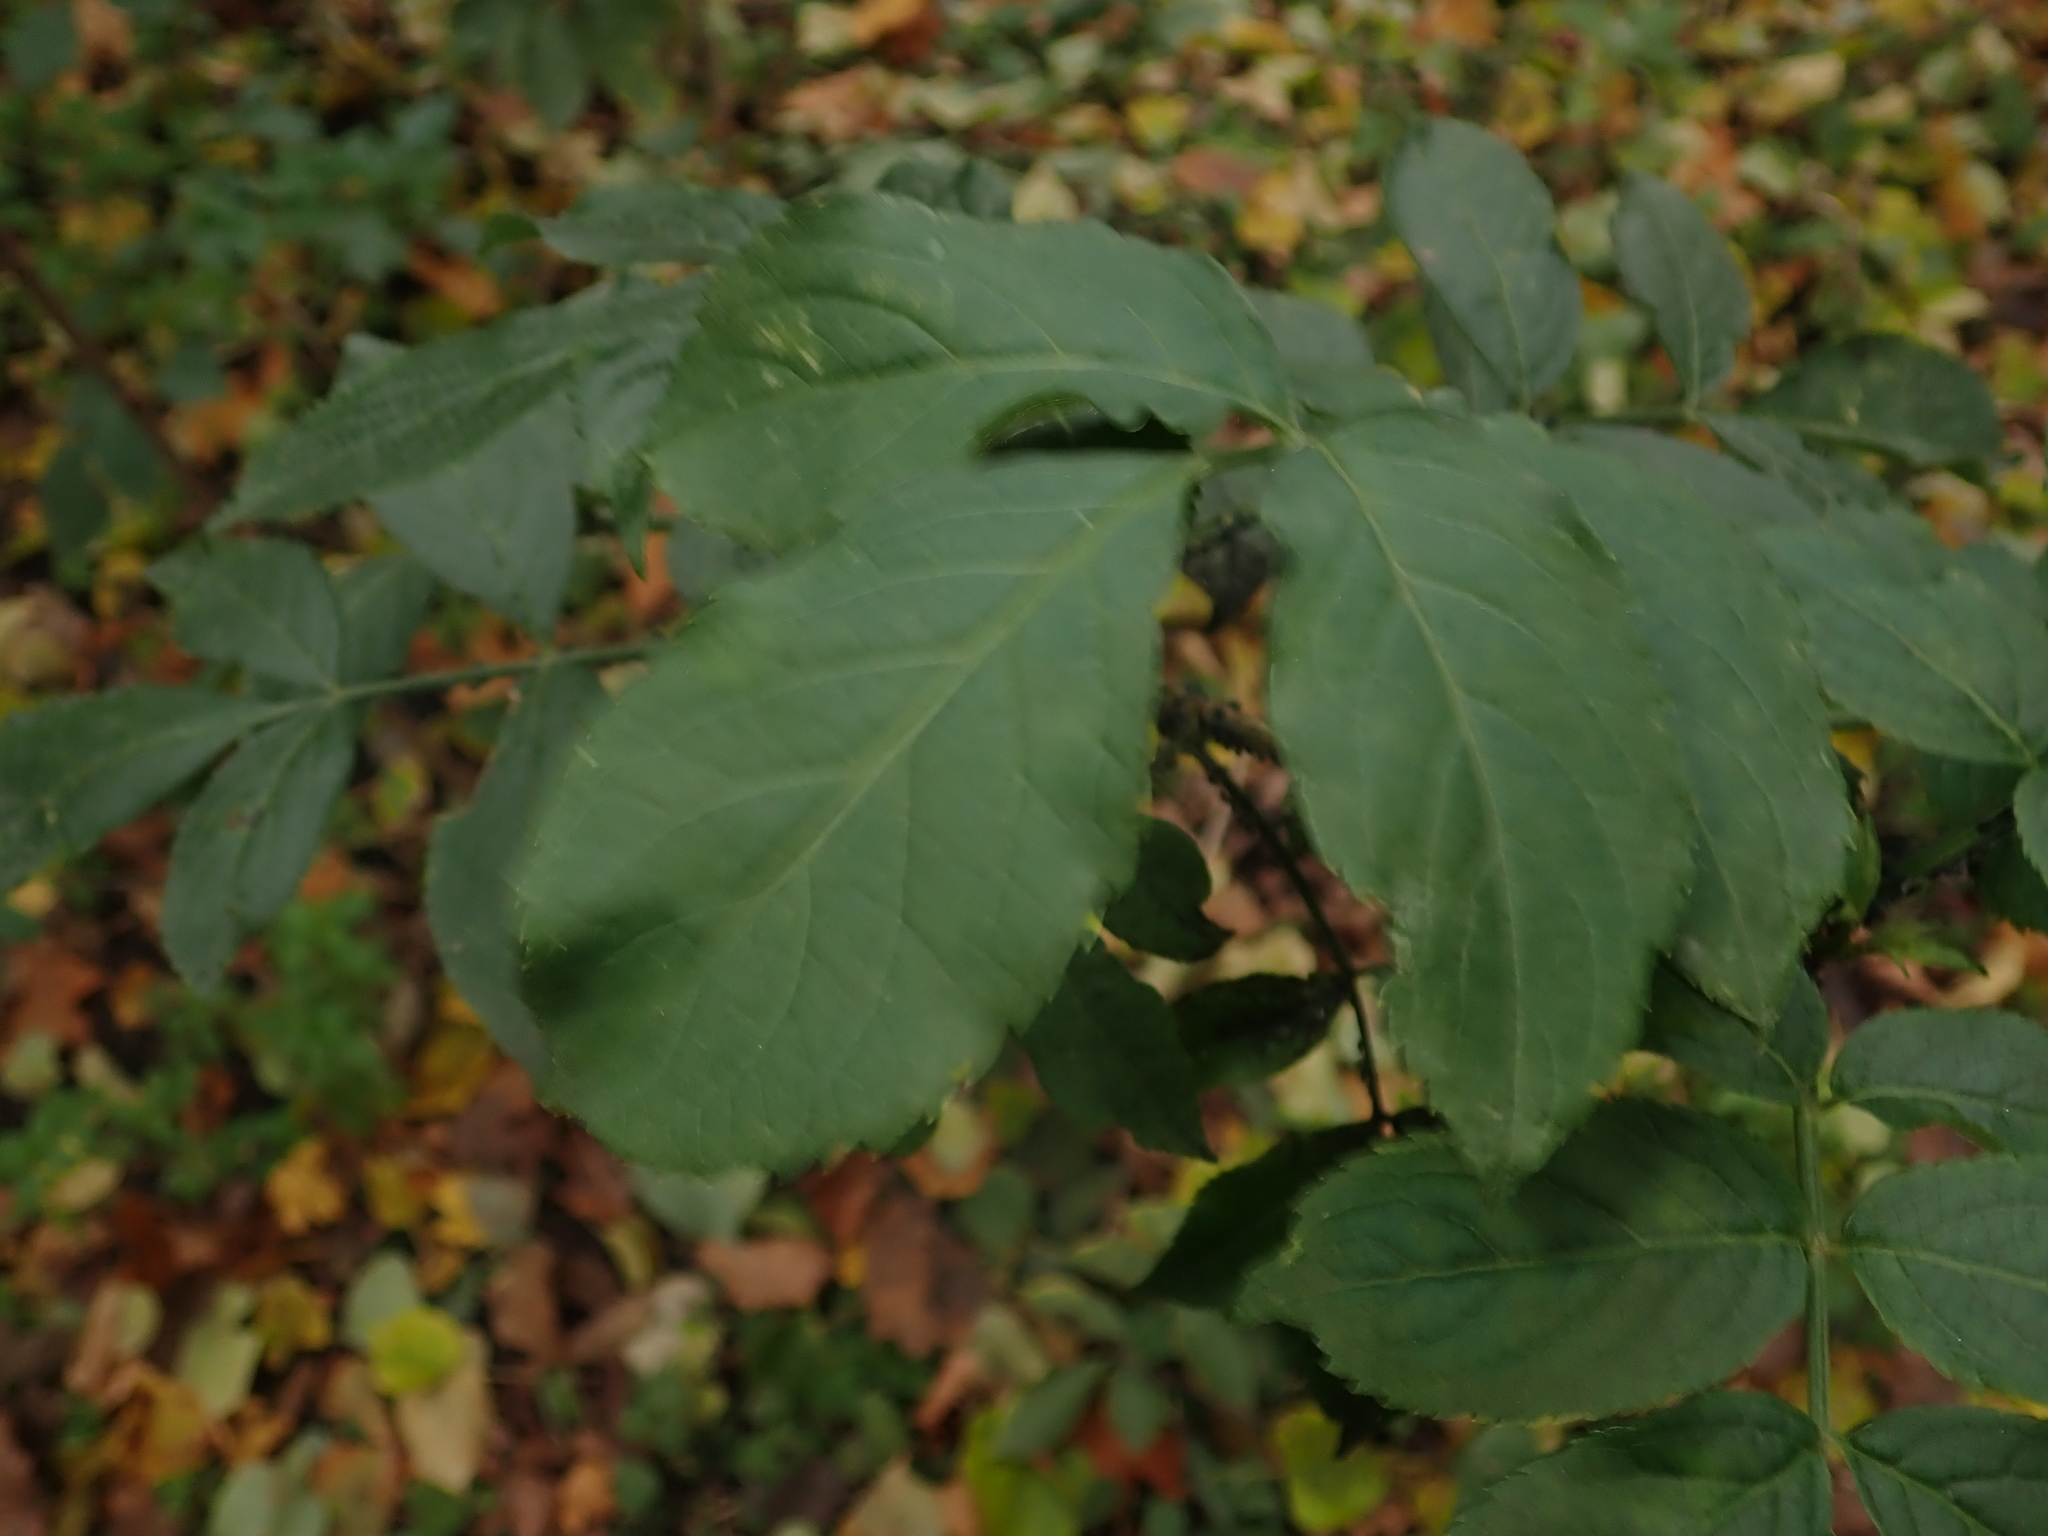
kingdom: Plantae
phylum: Tracheophyta
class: Magnoliopsida
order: Dipsacales
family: Viburnaceae
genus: Sambucus
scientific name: Sambucus nigra
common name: Elder
